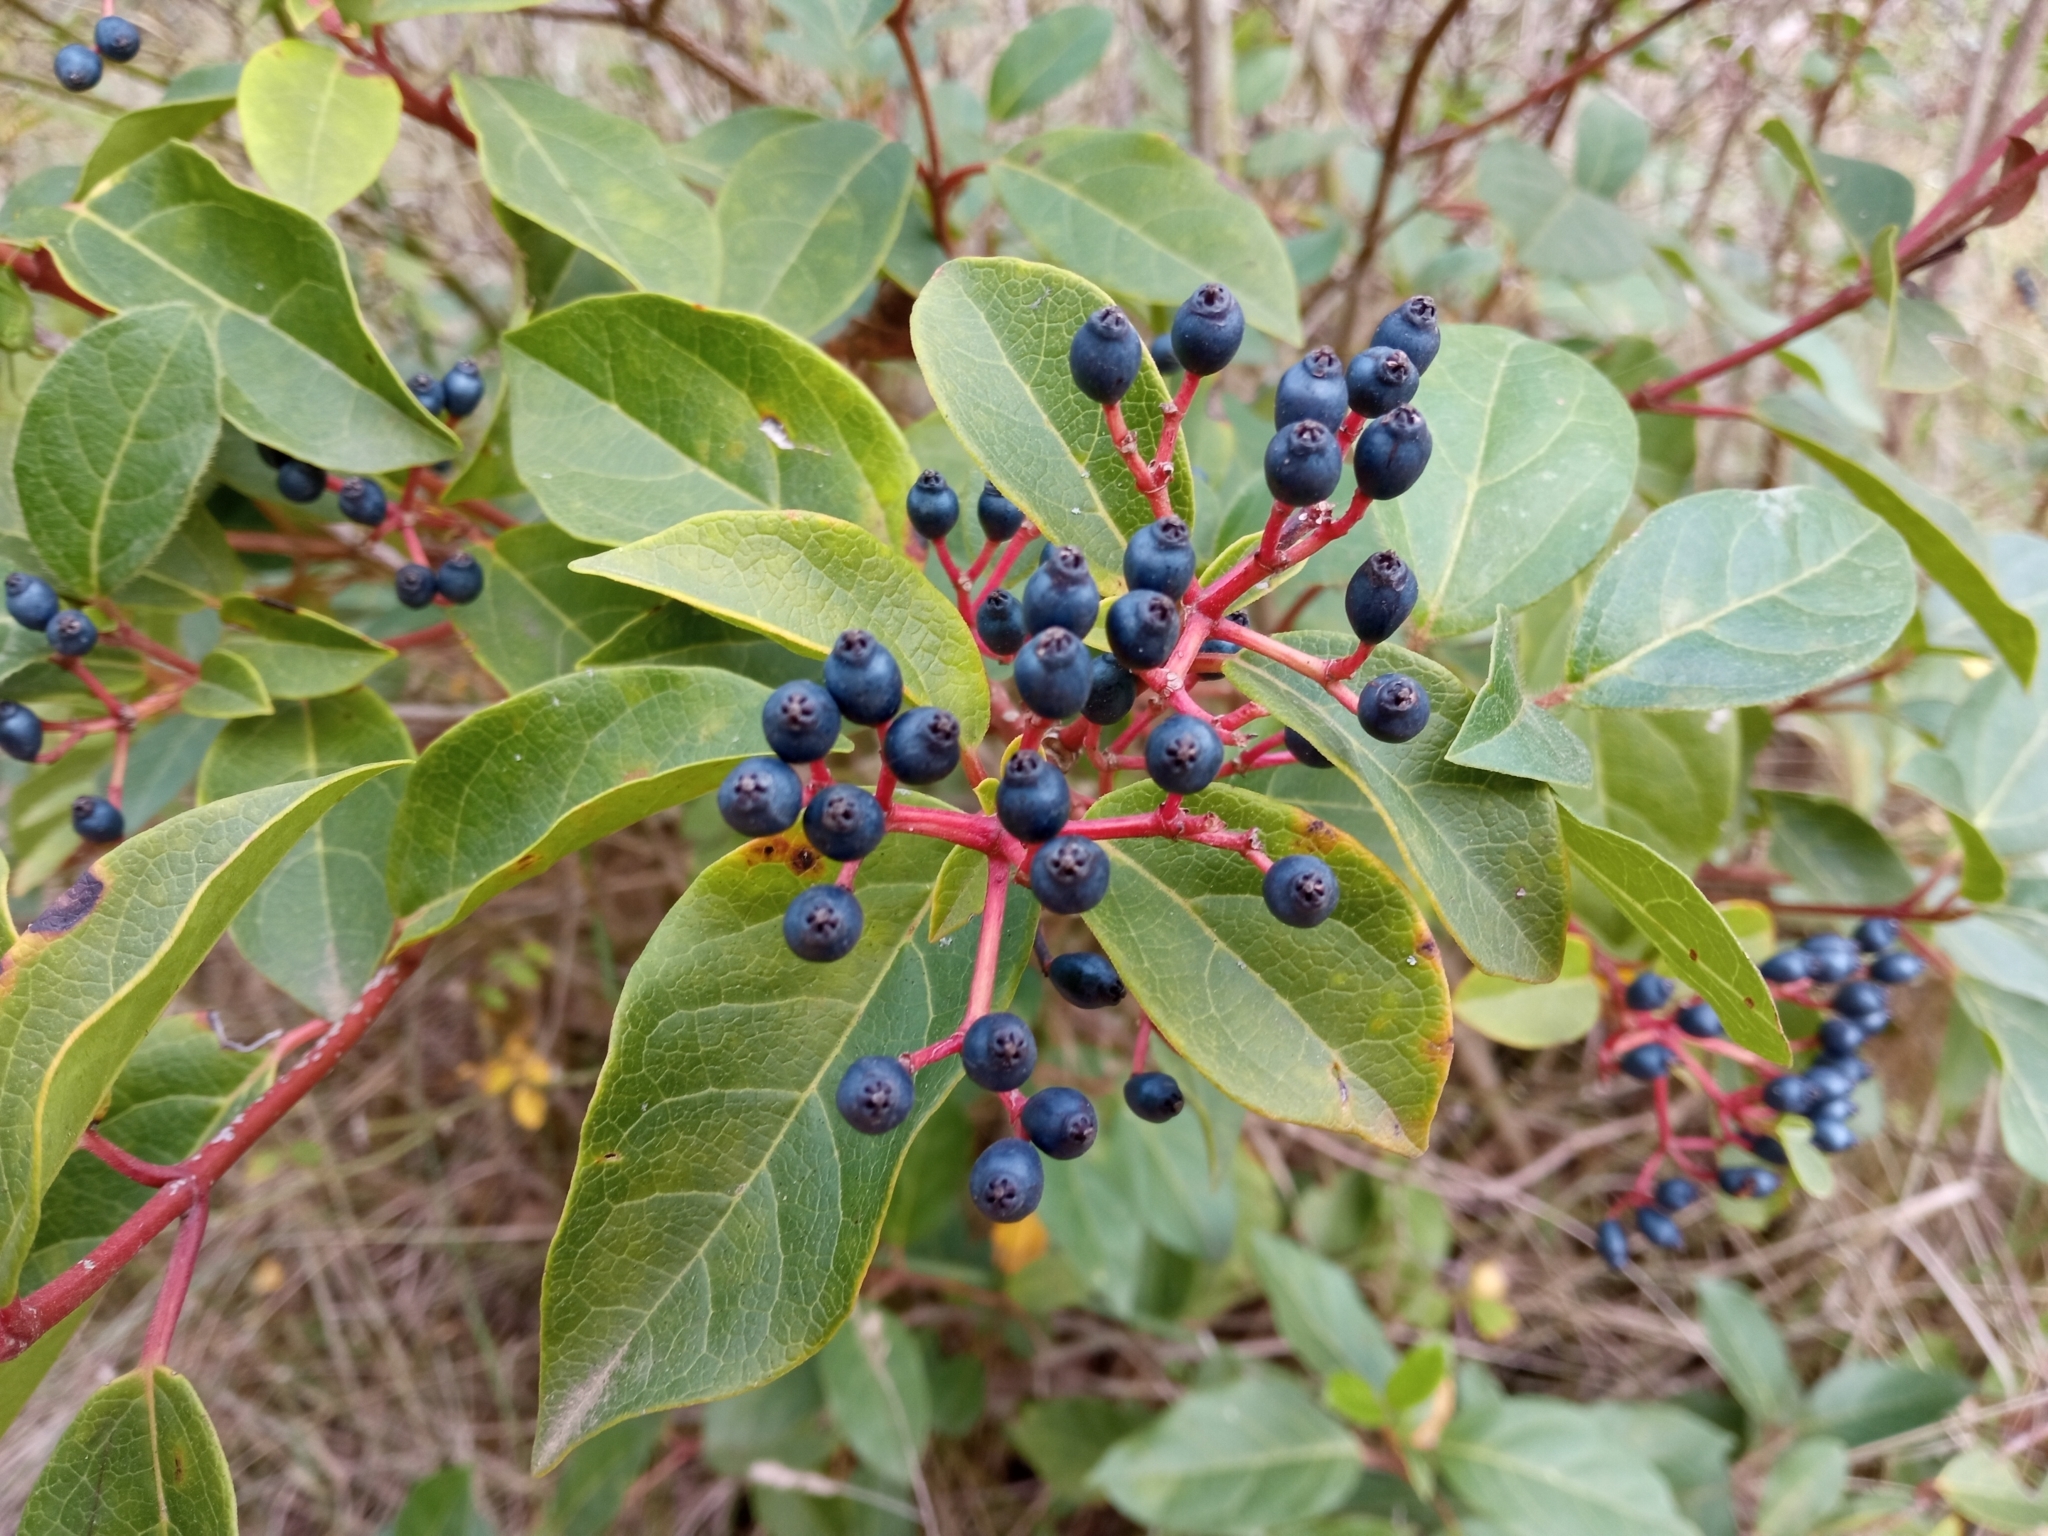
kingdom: Plantae
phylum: Tracheophyta
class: Magnoliopsida
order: Dipsacales
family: Viburnaceae
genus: Viburnum
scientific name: Viburnum tinus
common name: Laurustinus
